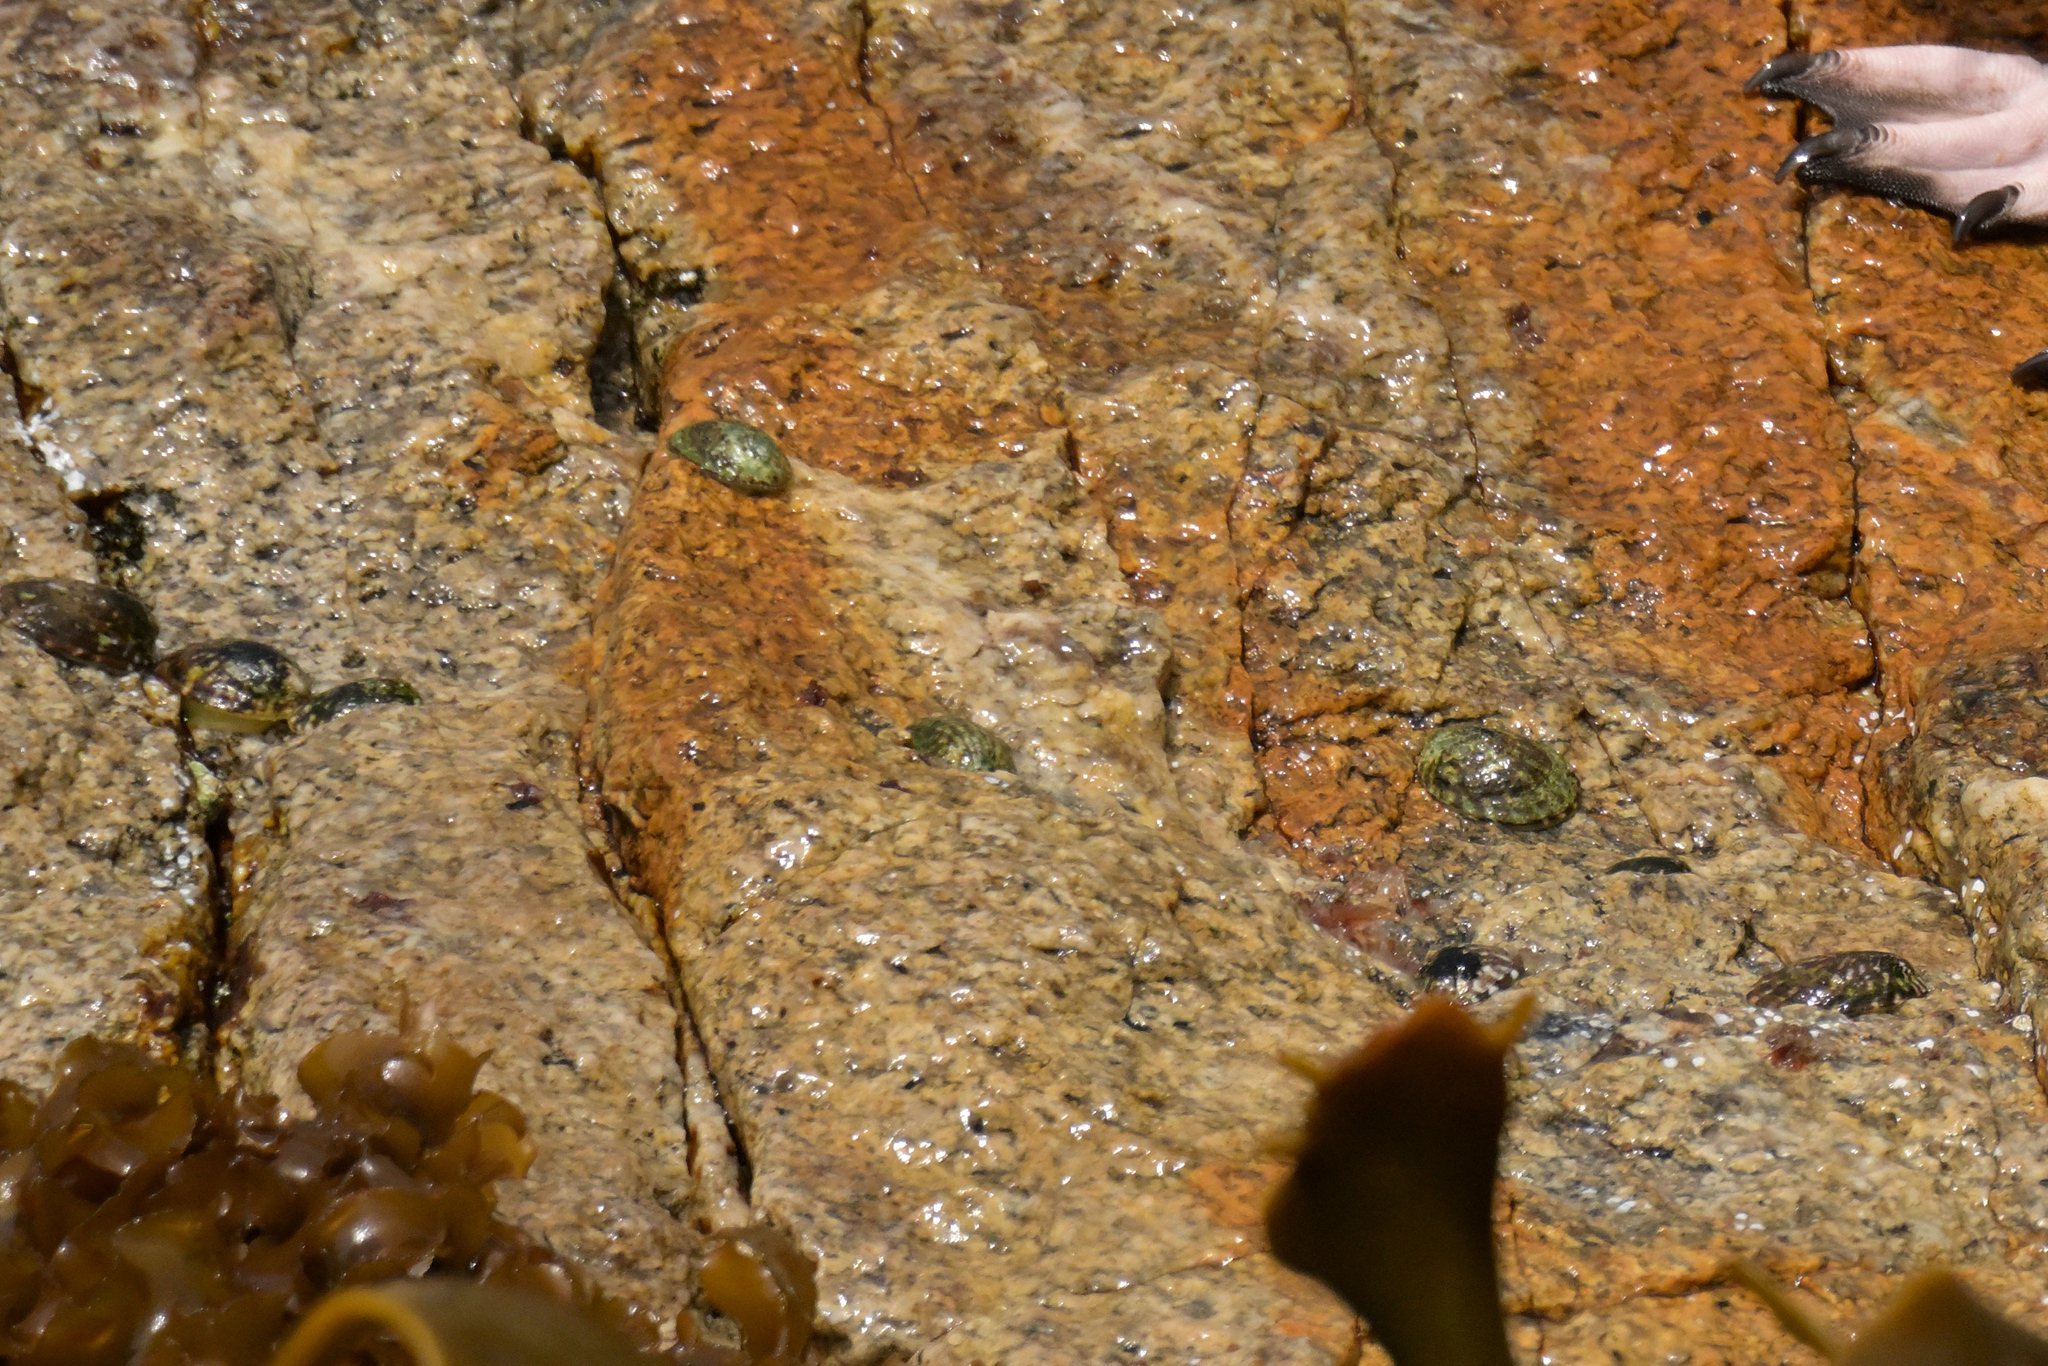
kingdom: Animalia
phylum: Mollusca
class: Gastropoda
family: Nacellidae
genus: Cellana
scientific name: Cellana strigilis
